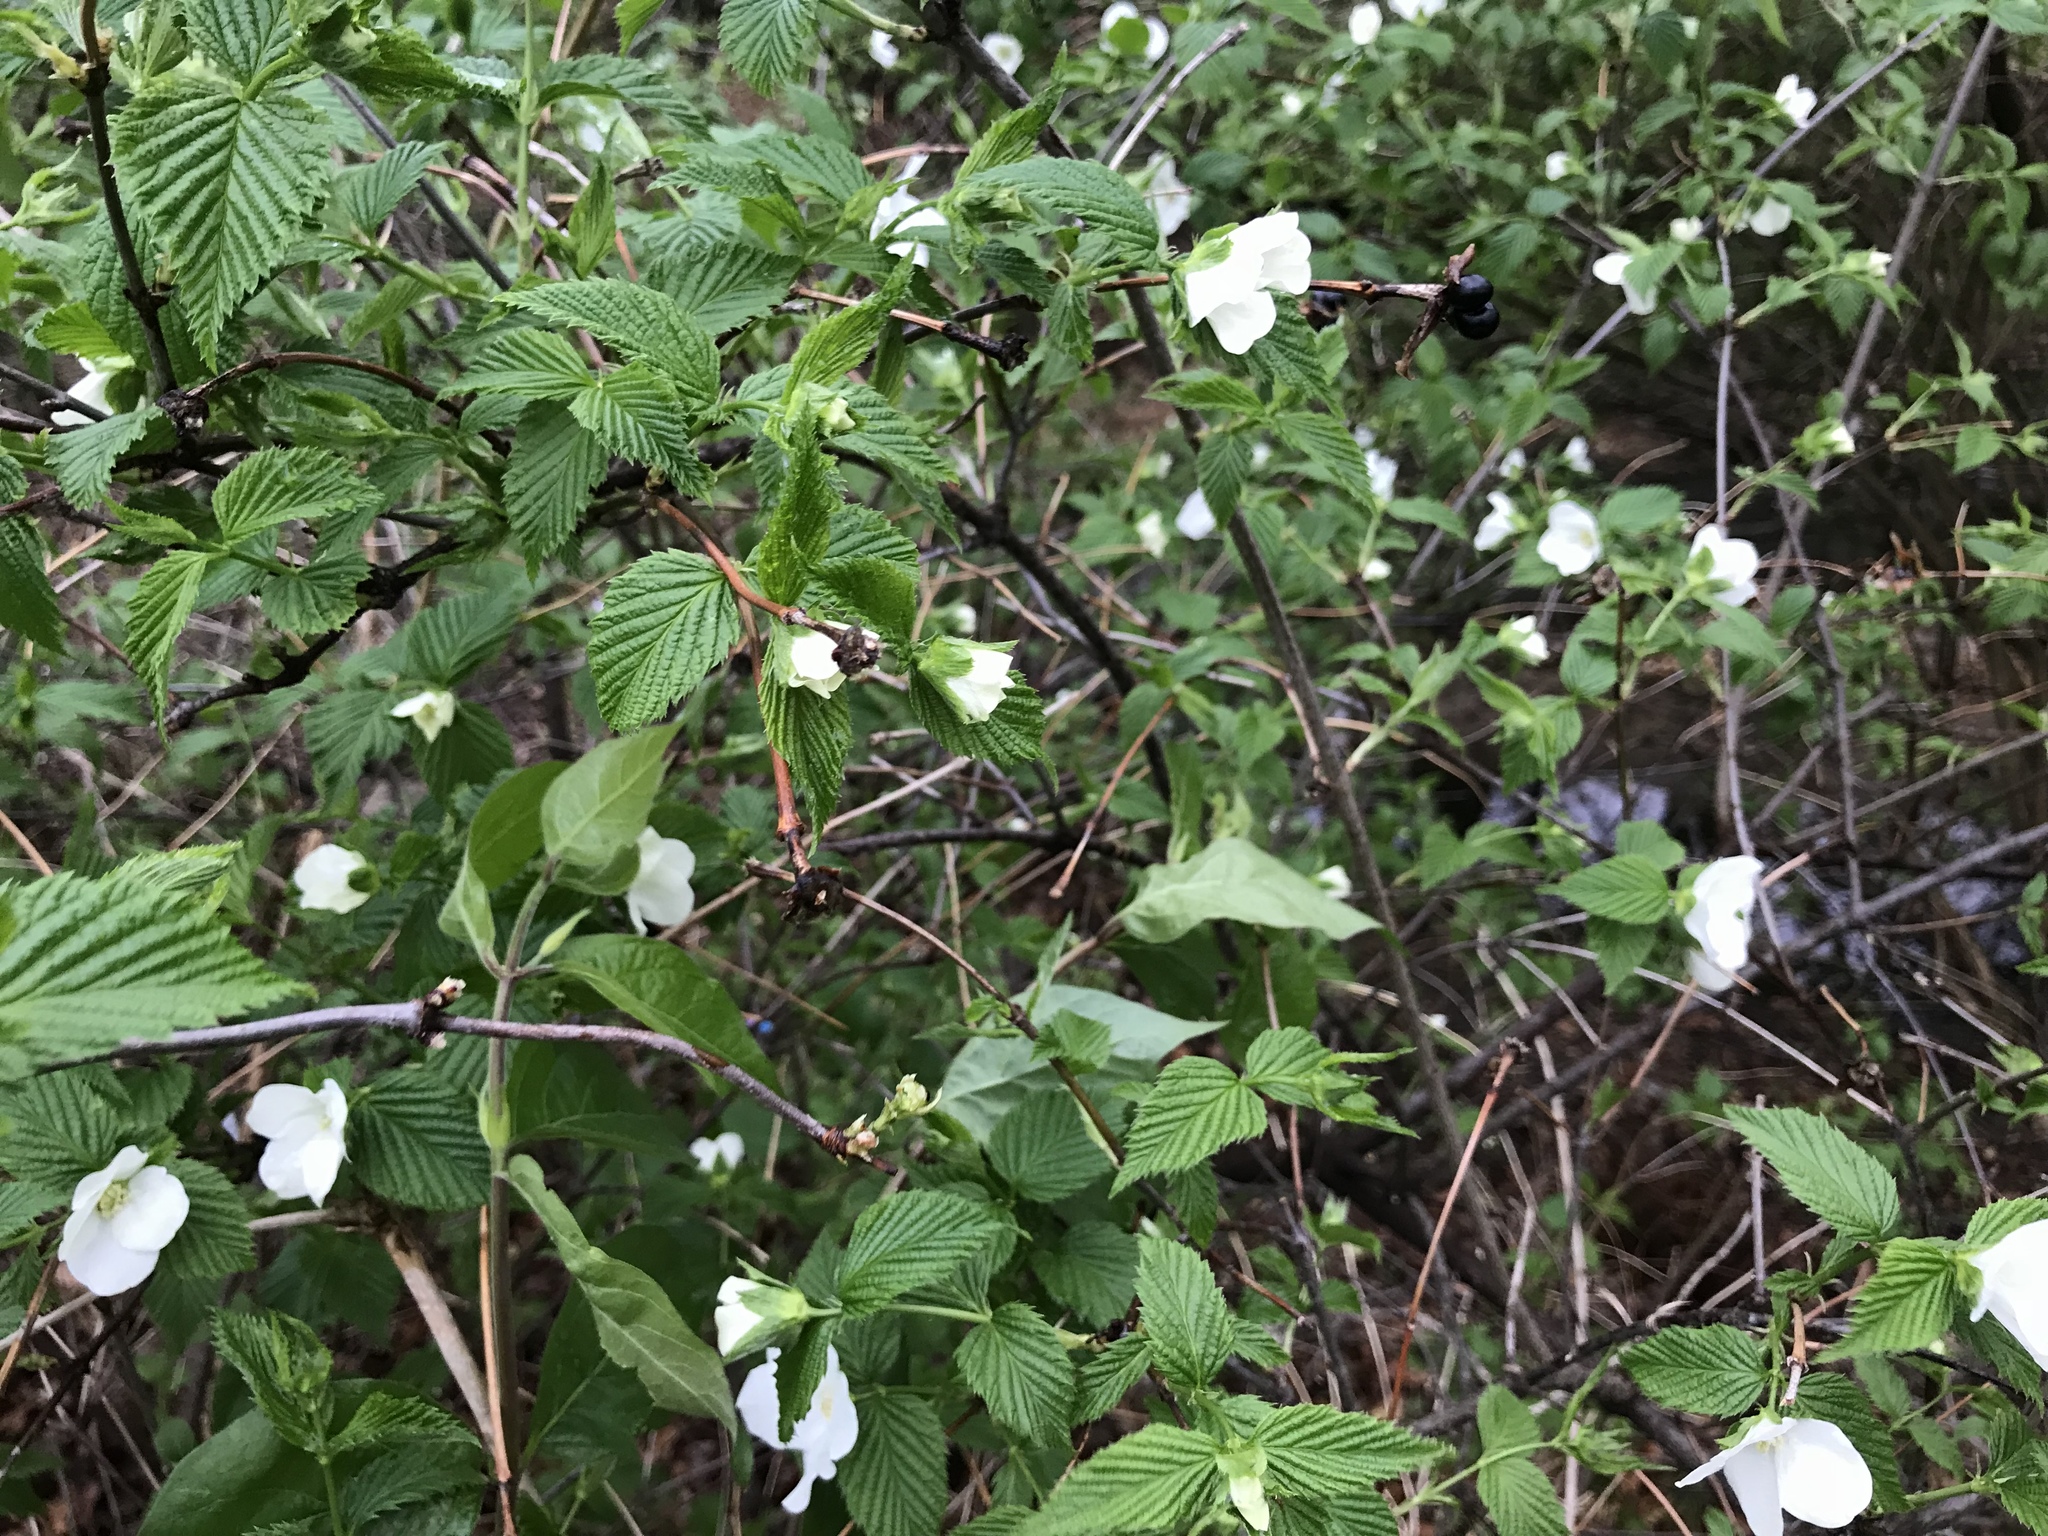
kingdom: Plantae
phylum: Tracheophyta
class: Magnoliopsida
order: Rosales
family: Rosaceae
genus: Rhodotypos
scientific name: Rhodotypos scandens
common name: Jetbead
